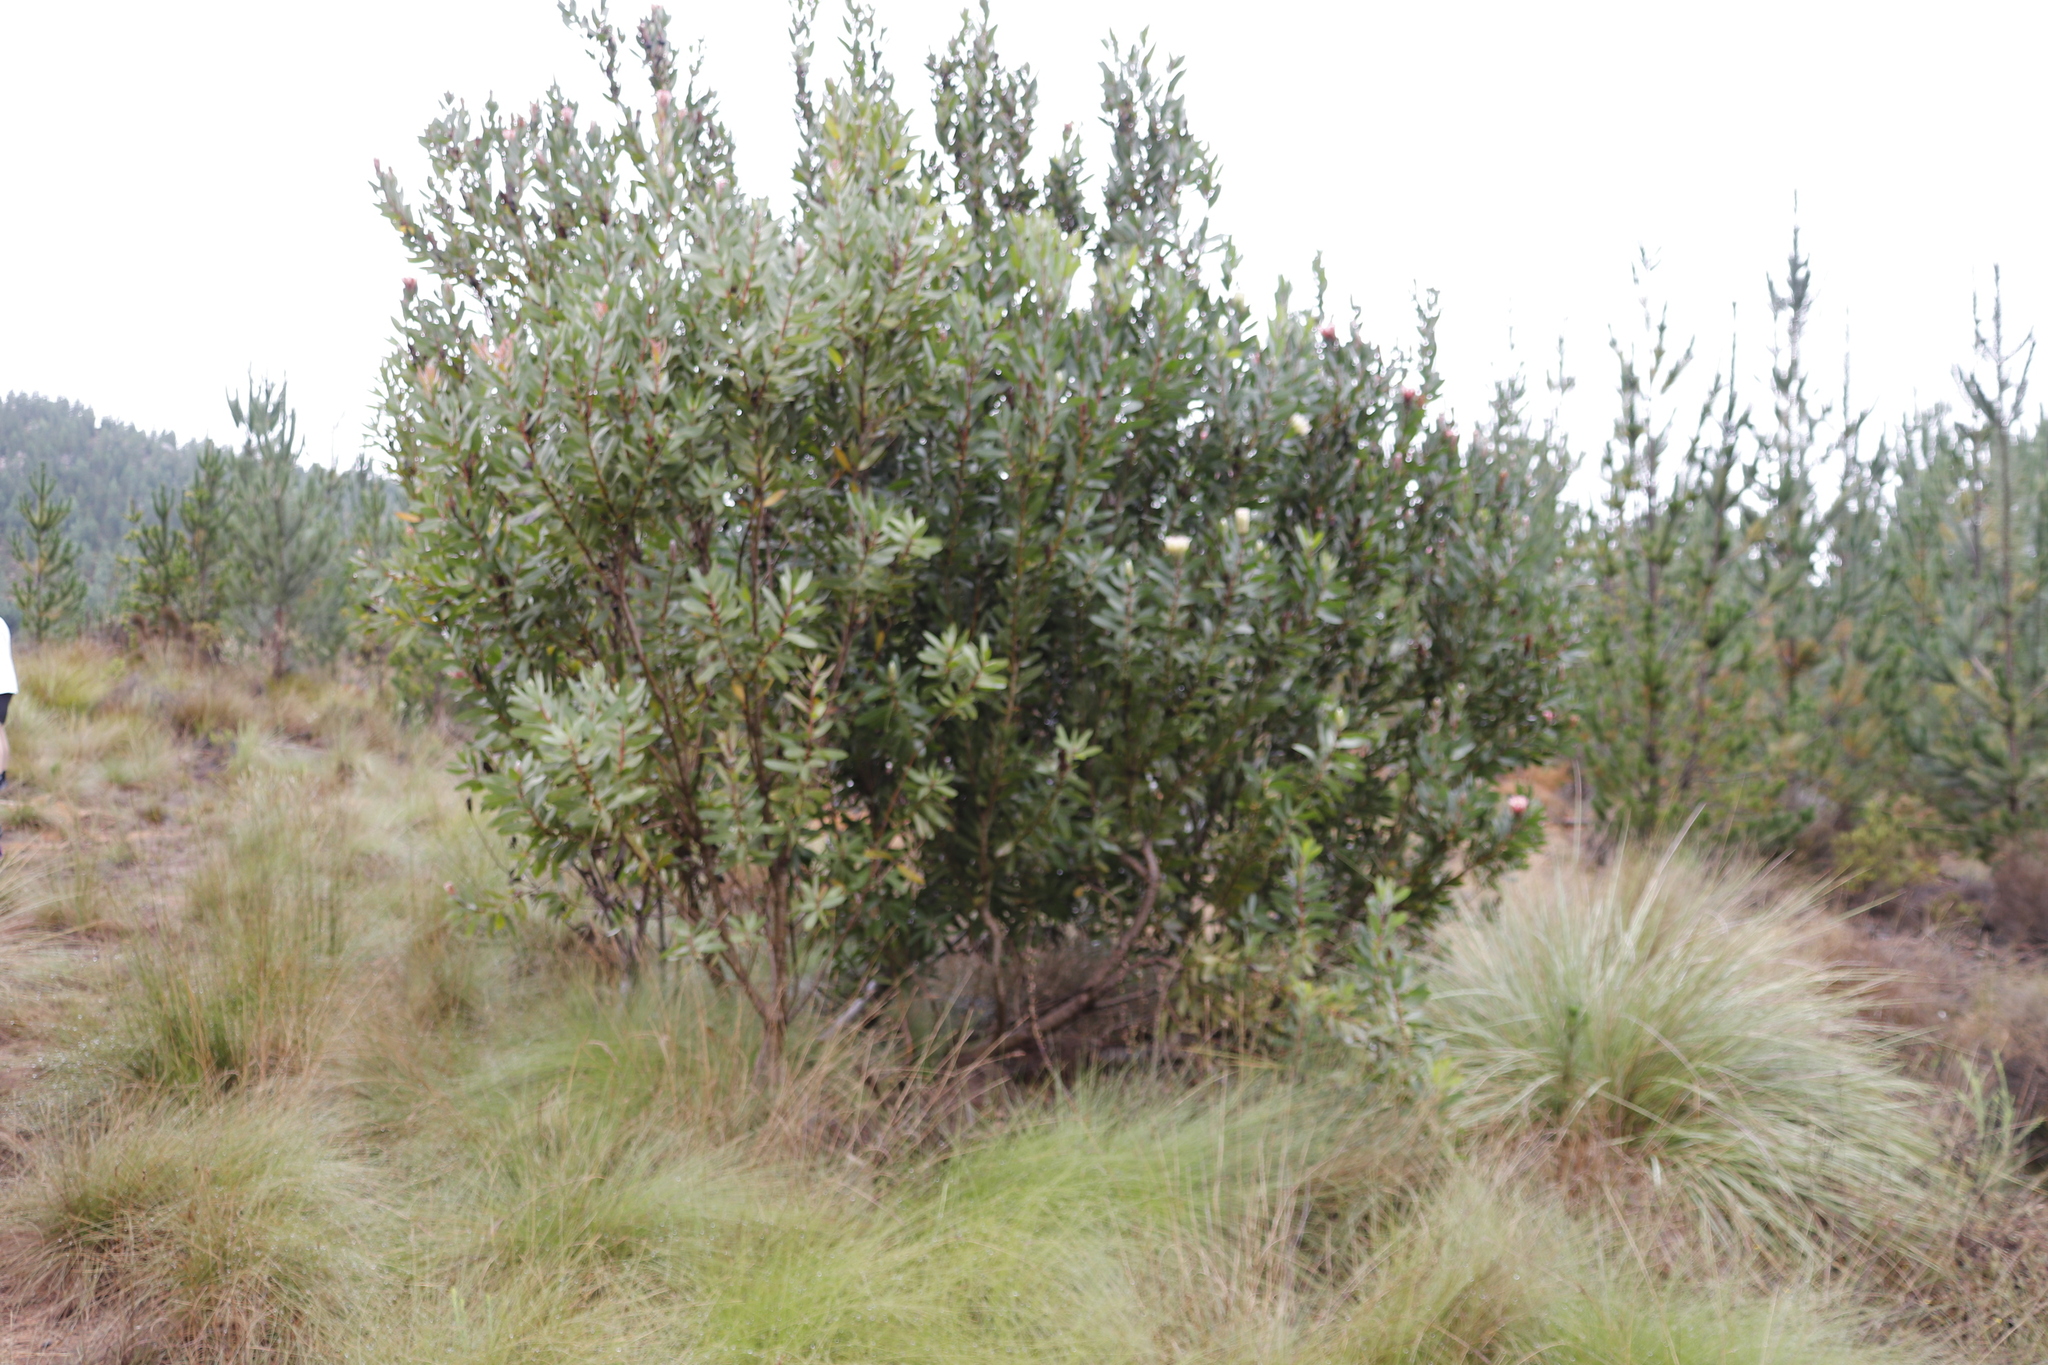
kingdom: Plantae
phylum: Tracheophyta
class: Magnoliopsida
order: Proteales
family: Proteaceae
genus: Protea
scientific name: Protea mundii
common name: Forest sugarbush
